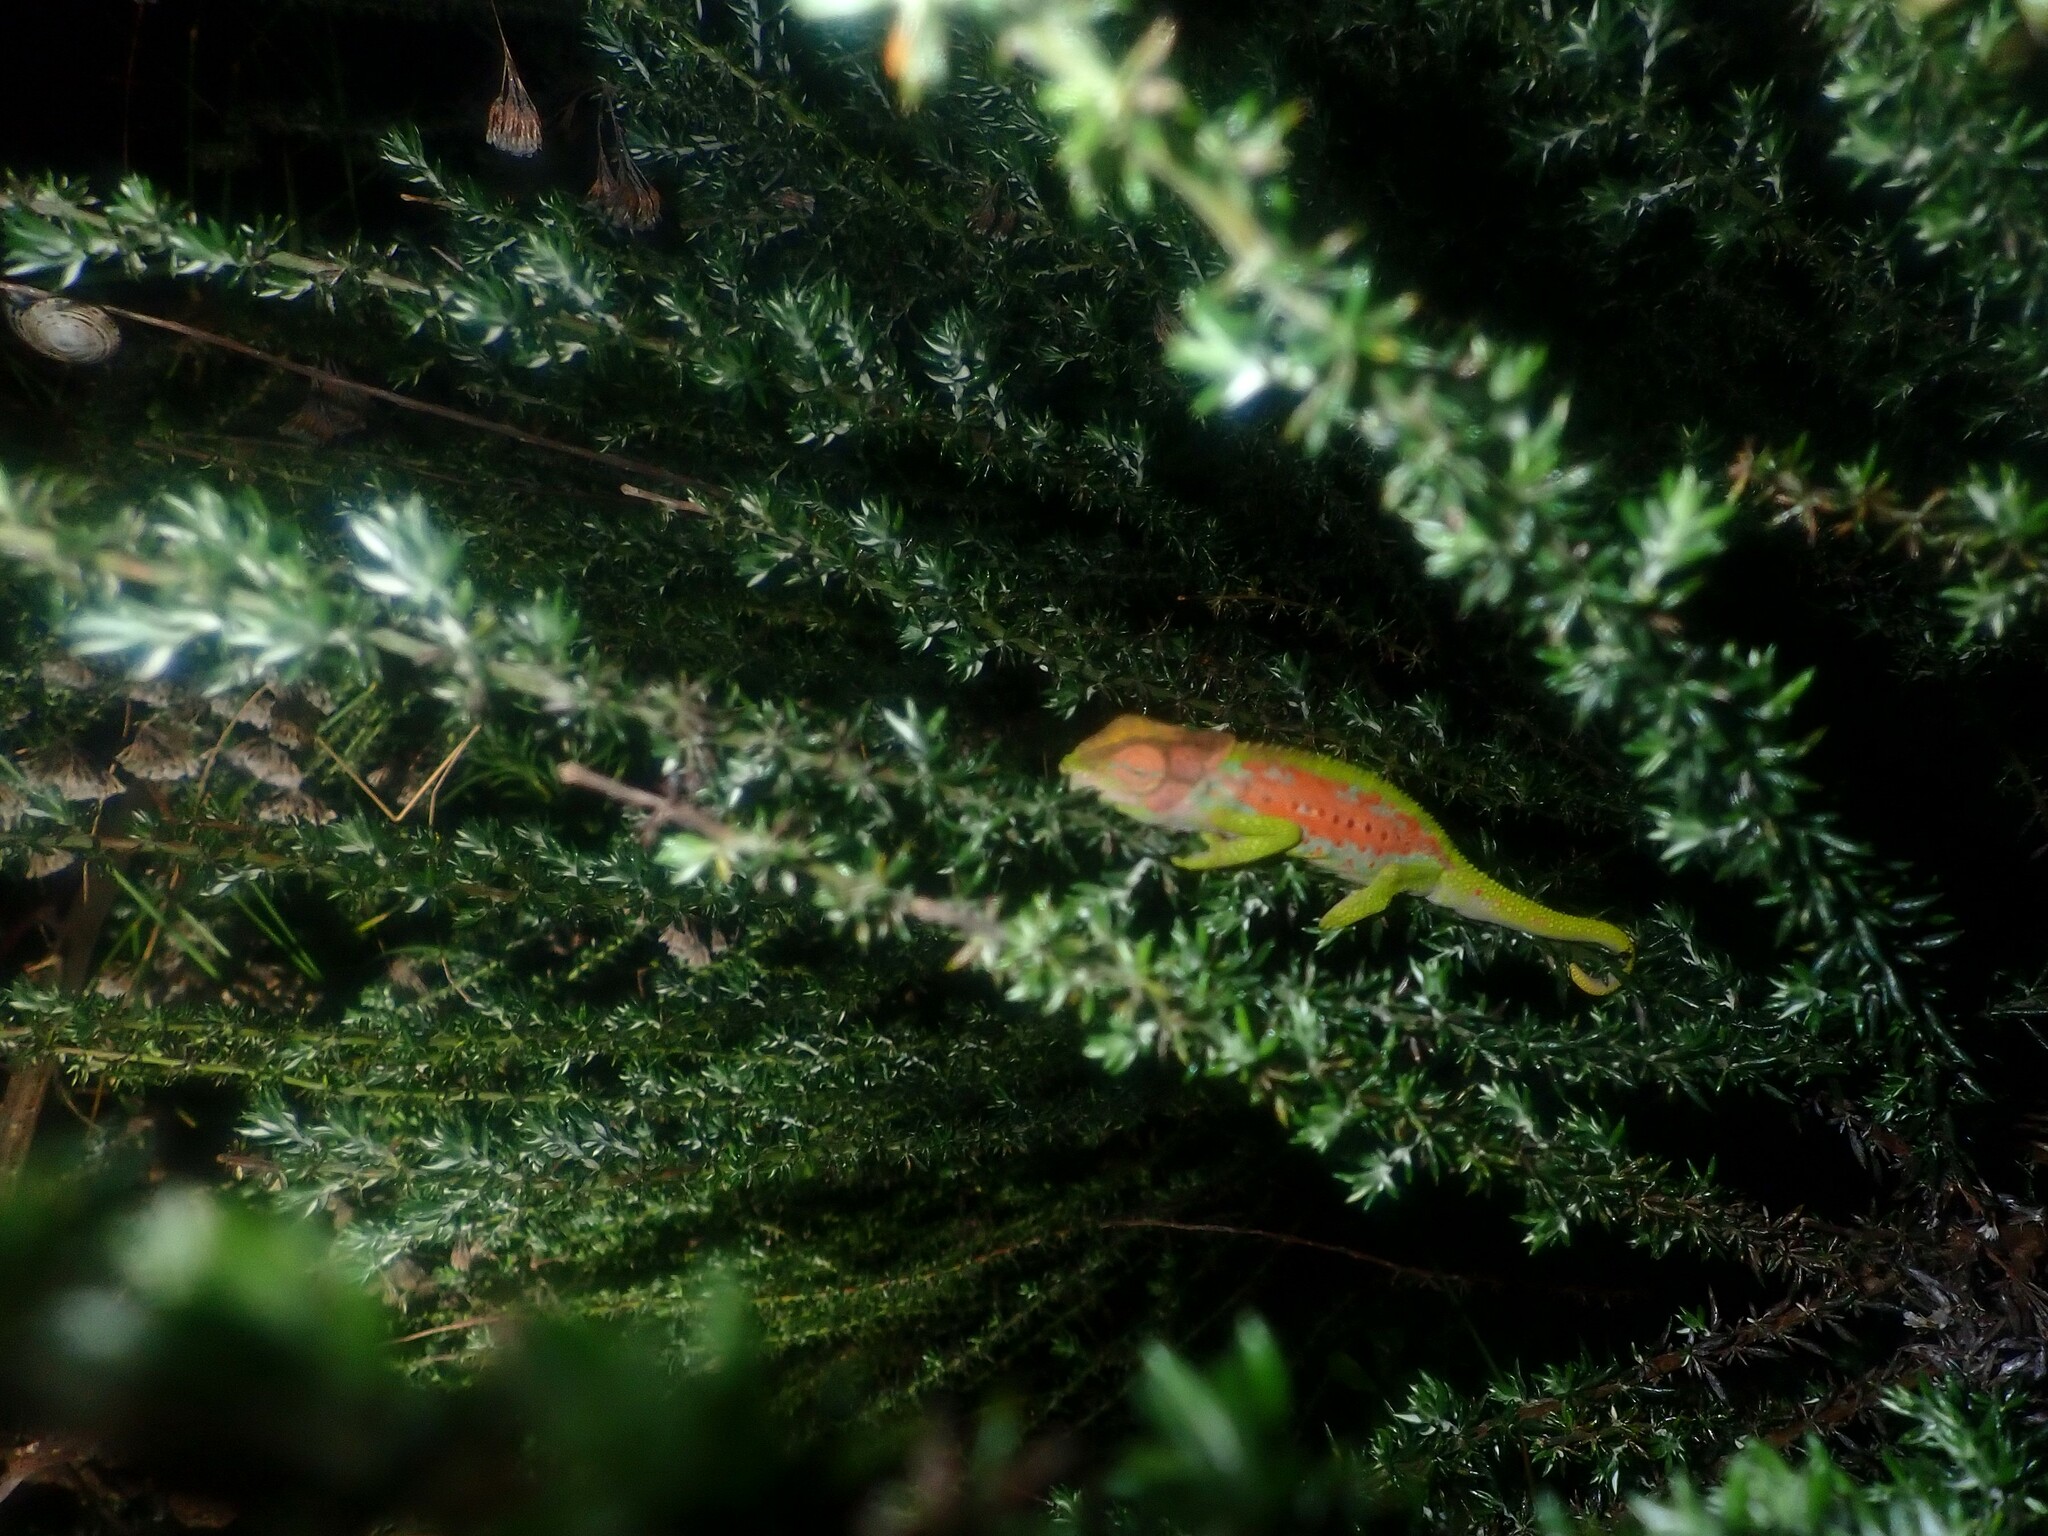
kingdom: Animalia
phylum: Chordata
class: Squamata
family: Chamaeleonidae
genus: Bradypodion
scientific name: Bradypodion pumilum
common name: Cape dwarf chameleon
